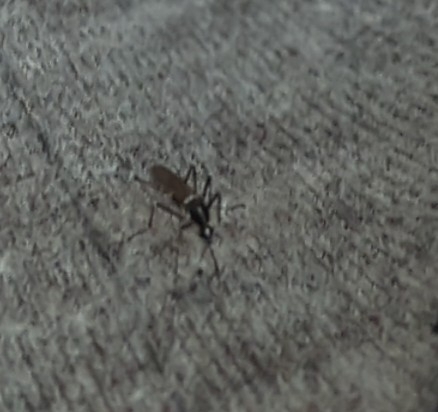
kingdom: Animalia
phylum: Arthropoda
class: Insecta
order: Diptera
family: Culicidae
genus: Aedes
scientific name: Aedes albopictus
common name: Tiger mosquito
